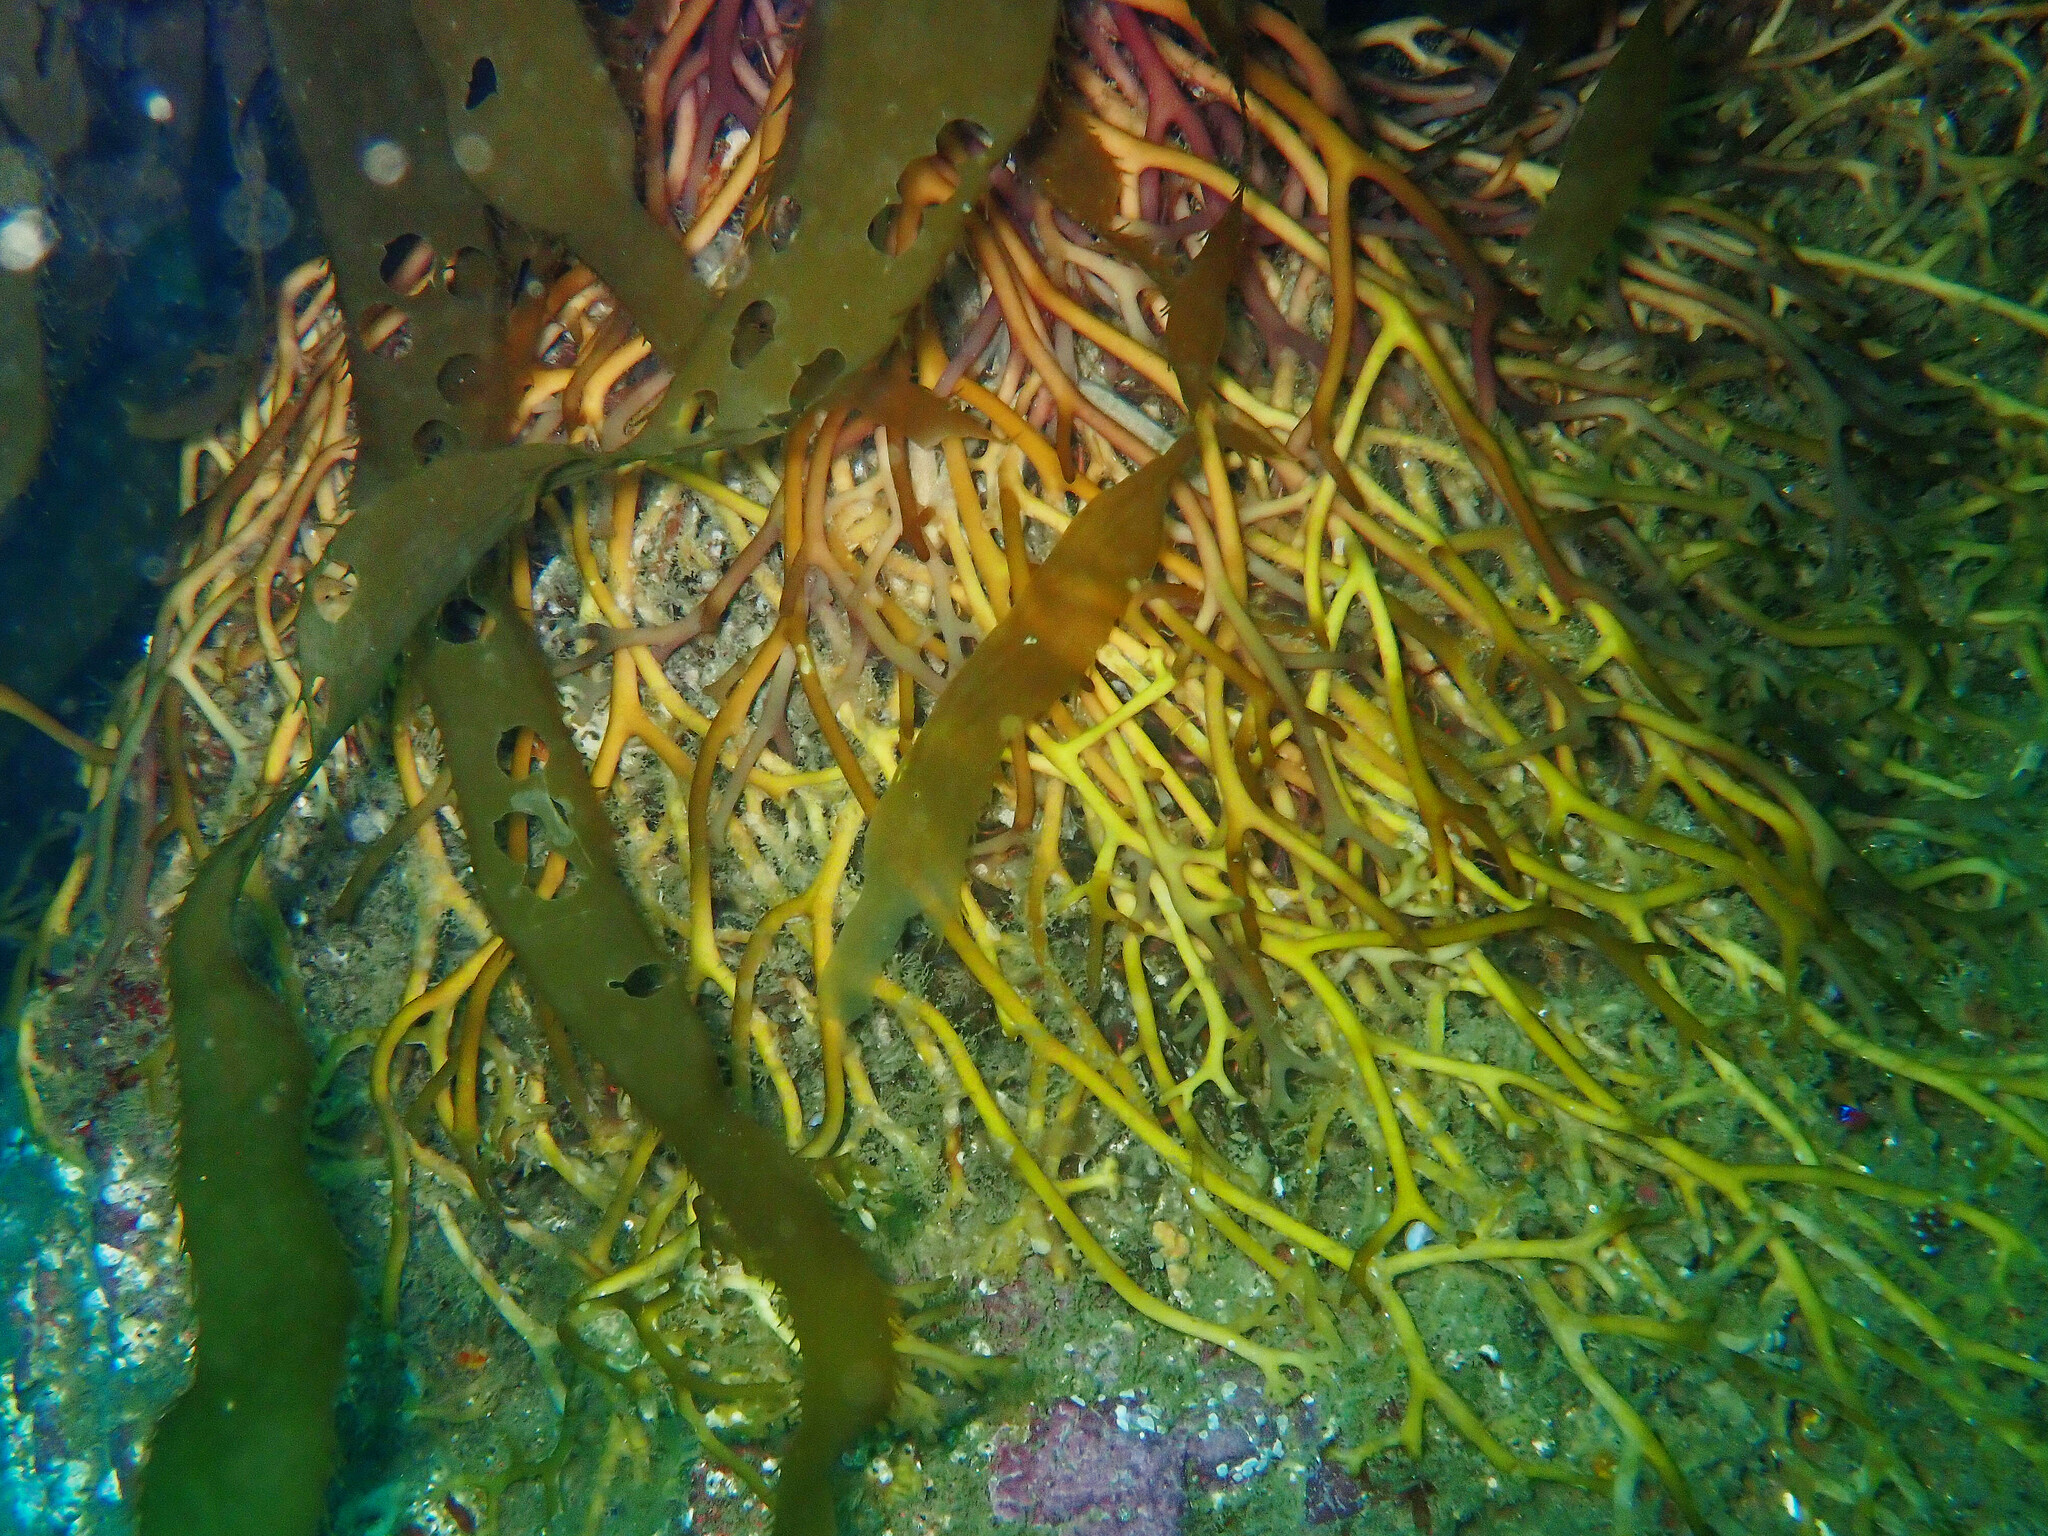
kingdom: Chromista
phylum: Ochrophyta
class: Phaeophyceae
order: Laminariales
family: Laminariaceae
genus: Macrocystis
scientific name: Macrocystis pyrifera
